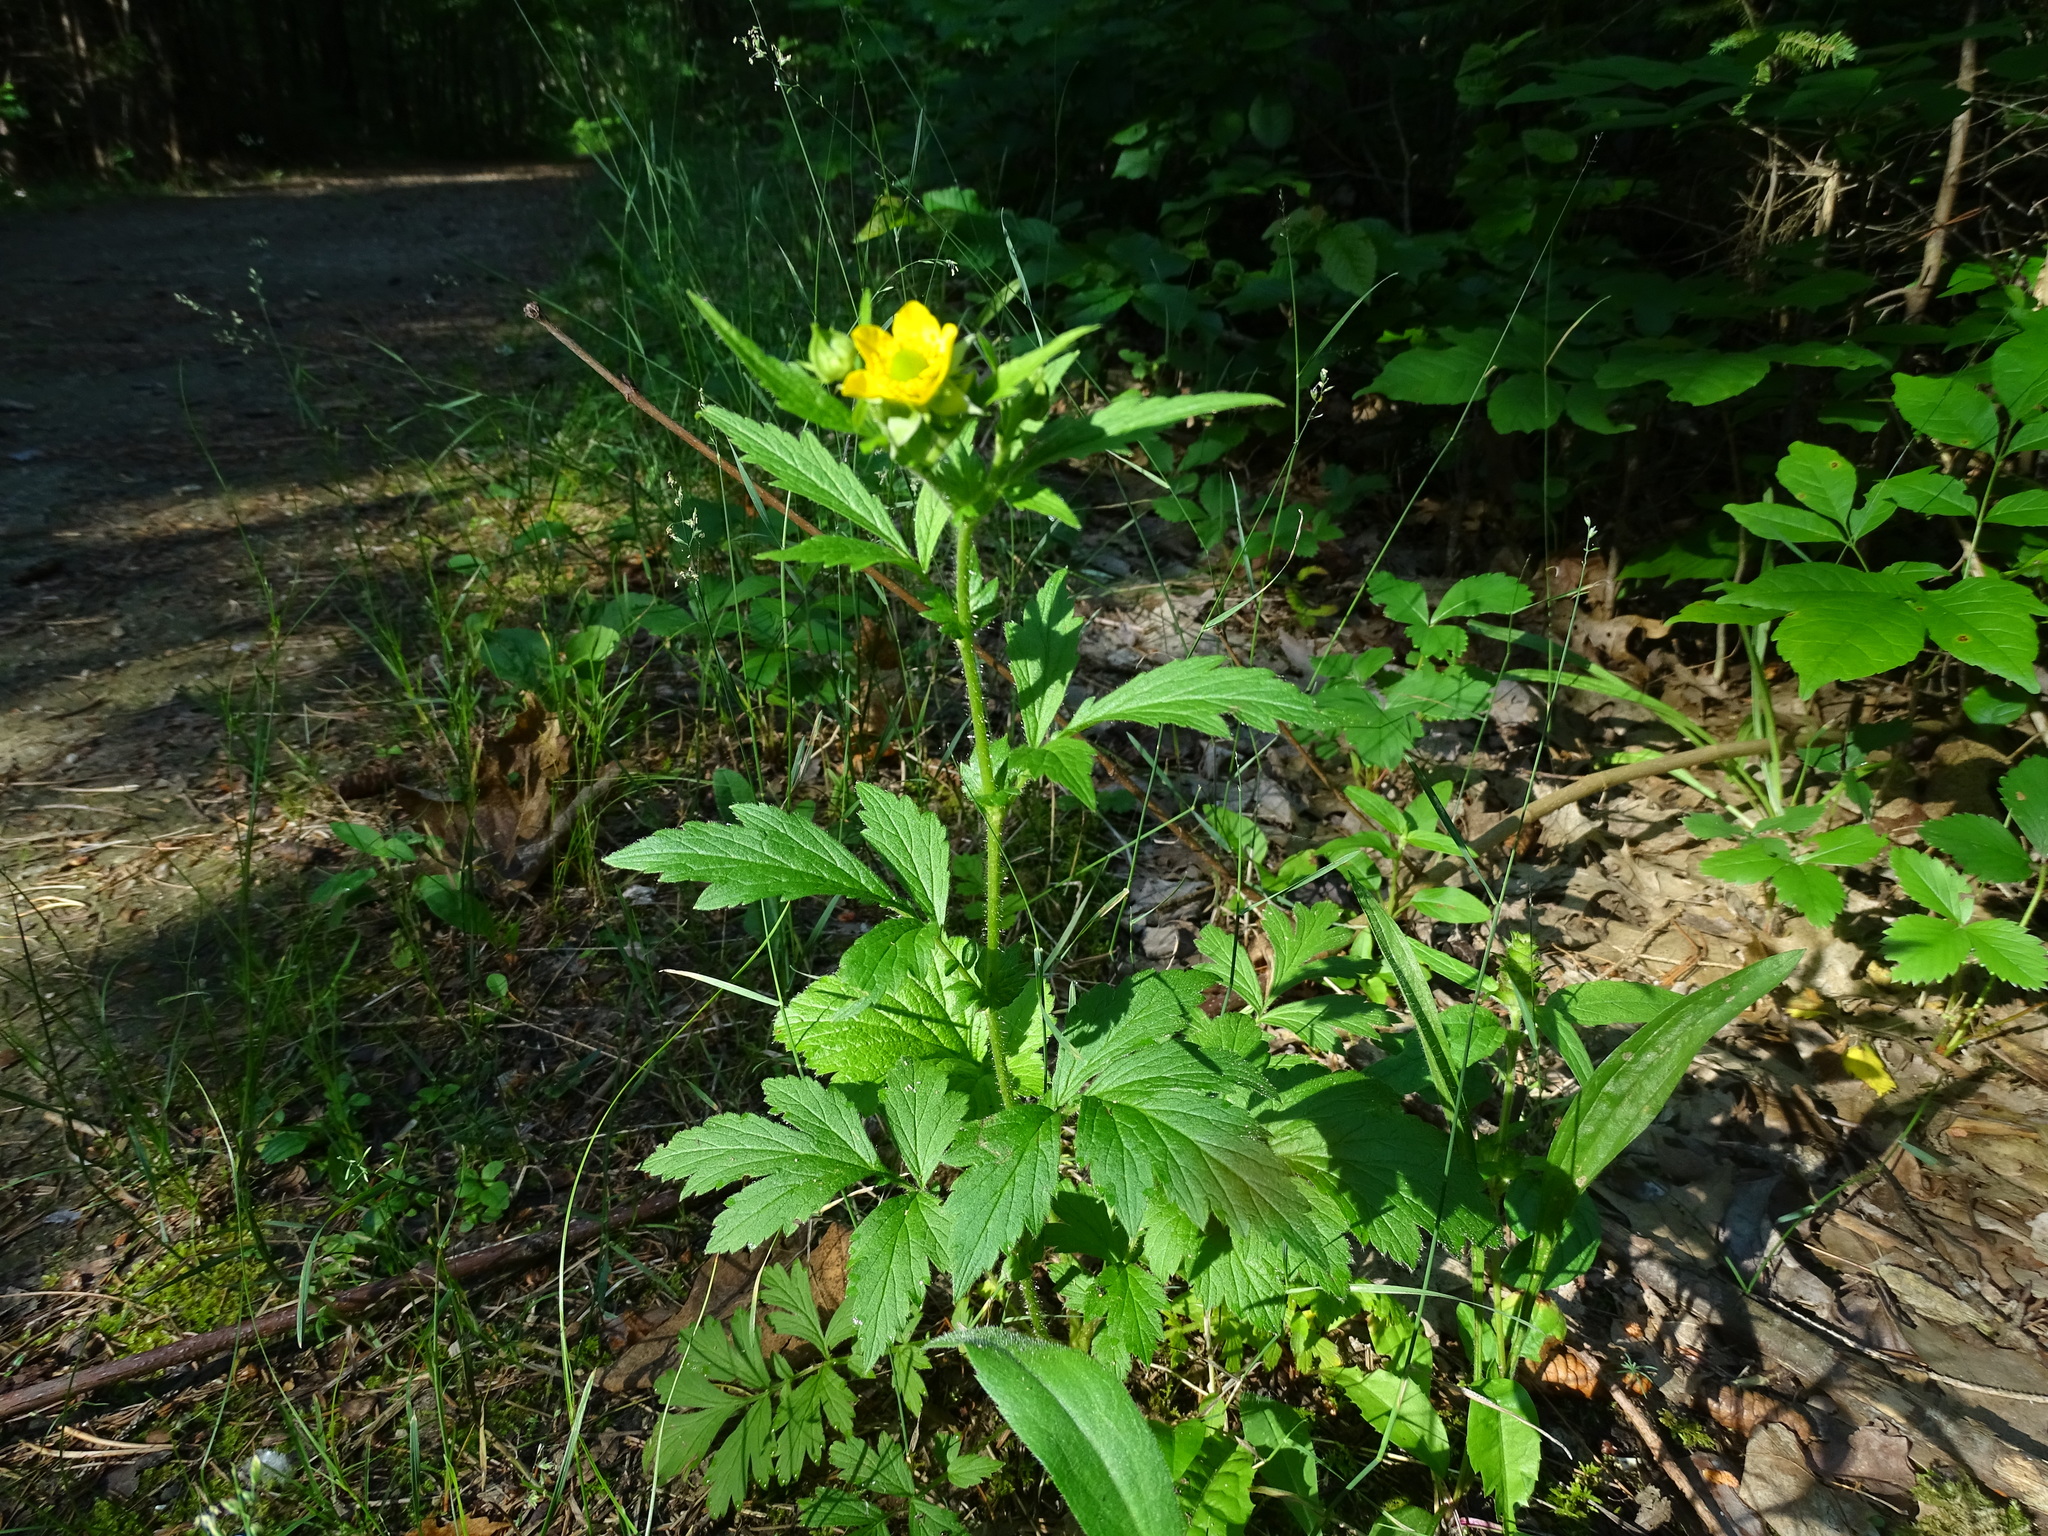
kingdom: Plantae
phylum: Tracheophyta
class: Magnoliopsida
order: Rosales
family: Rosaceae
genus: Geum
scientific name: Geum aleppicum
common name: Yellow avens
